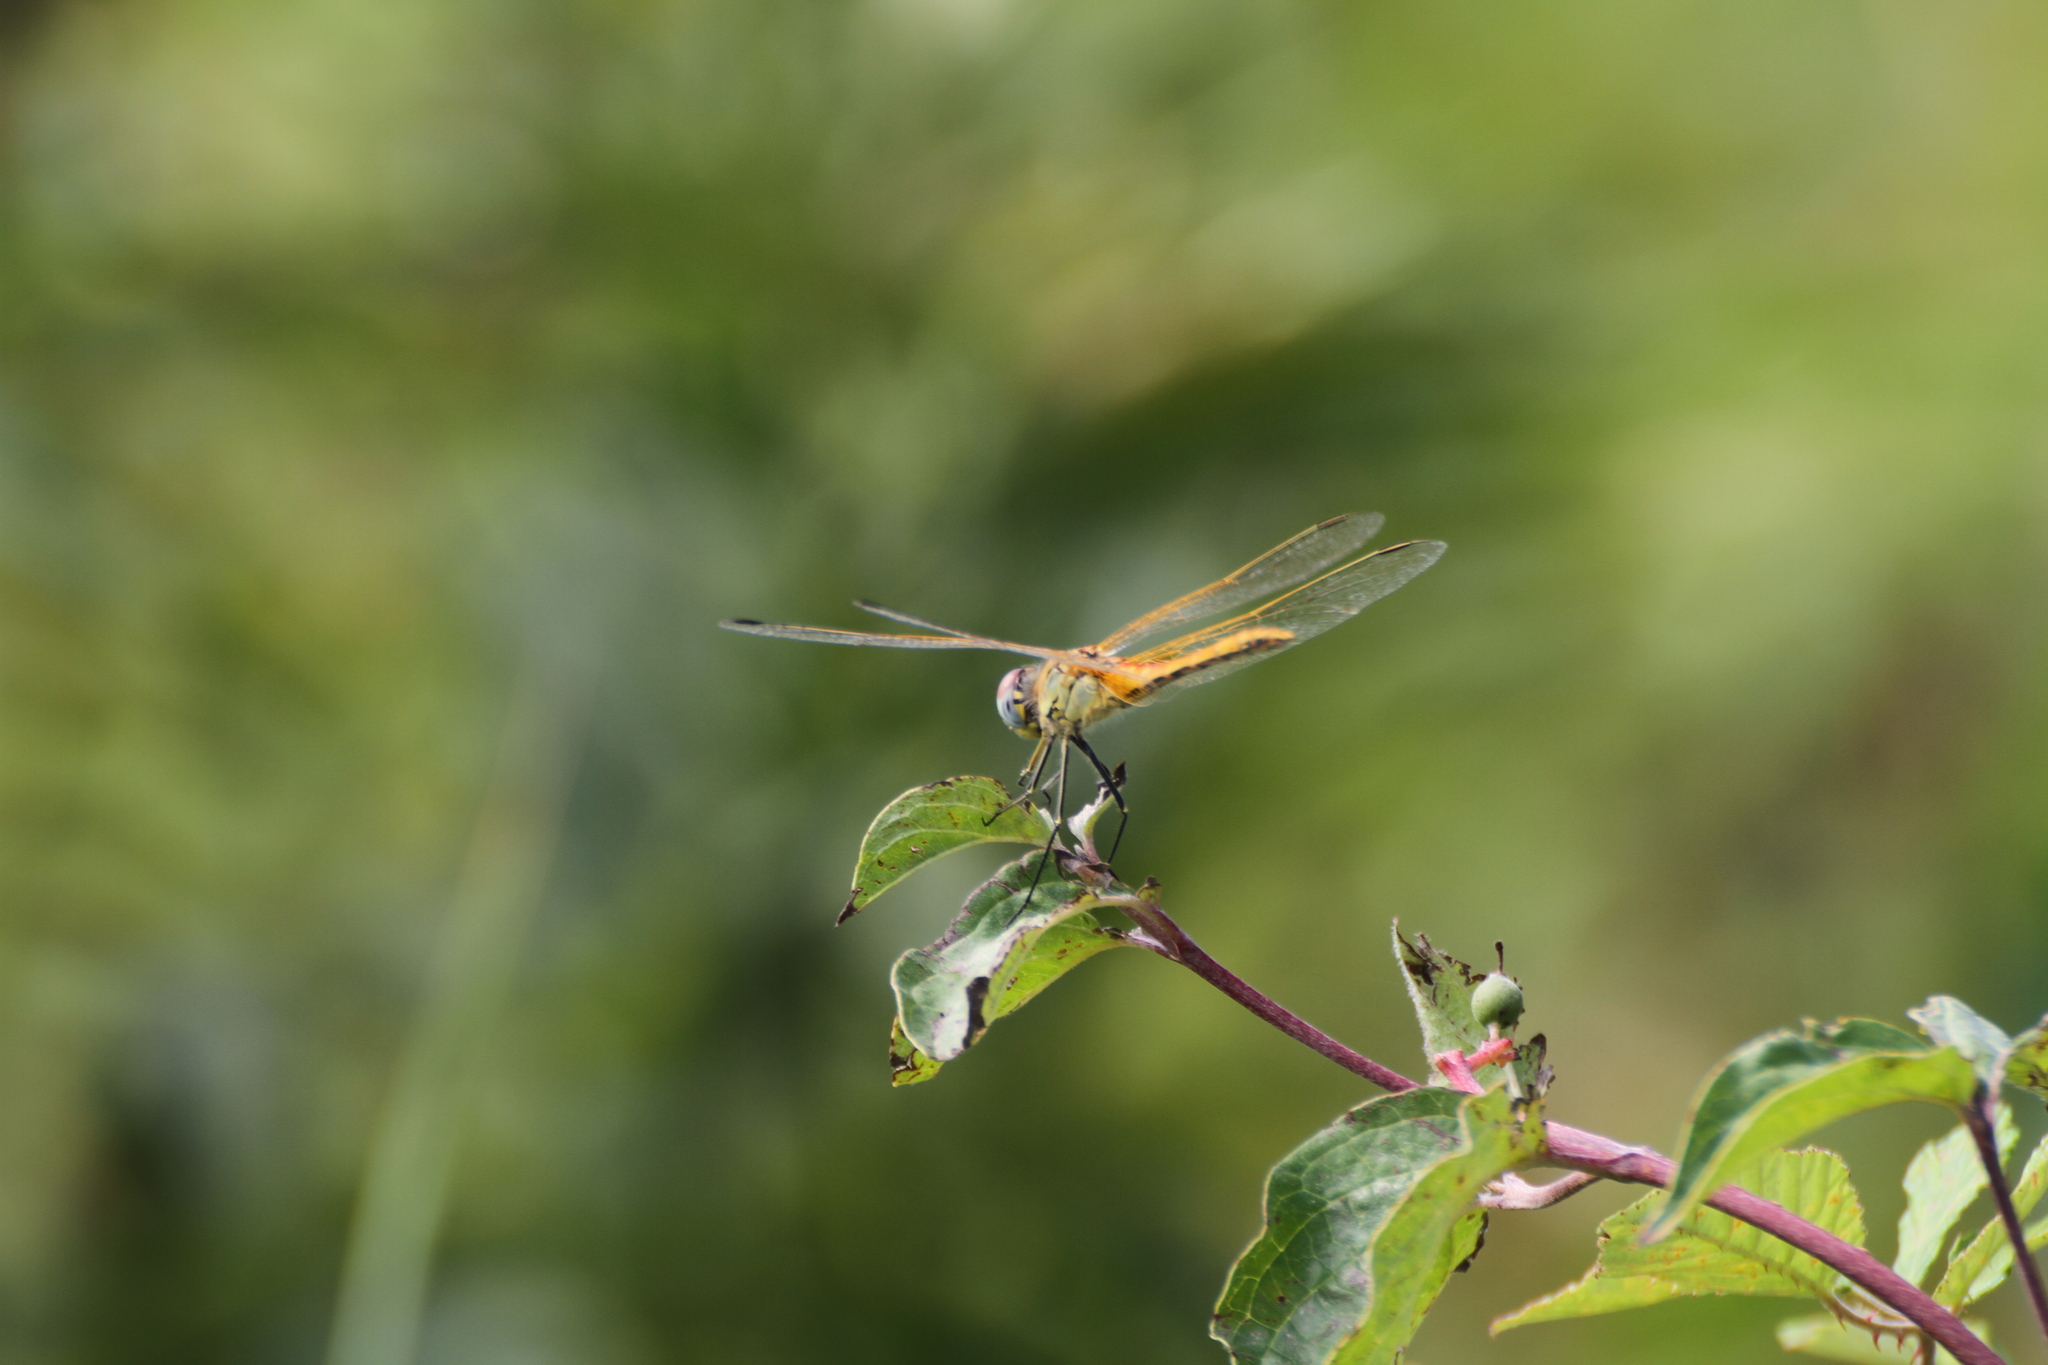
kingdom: Animalia
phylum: Arthropoda
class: Insecta
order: Odonata
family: Libellulidae
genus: Sympetrum
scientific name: Sympetrum fonscolombii
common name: Red-veined darter
